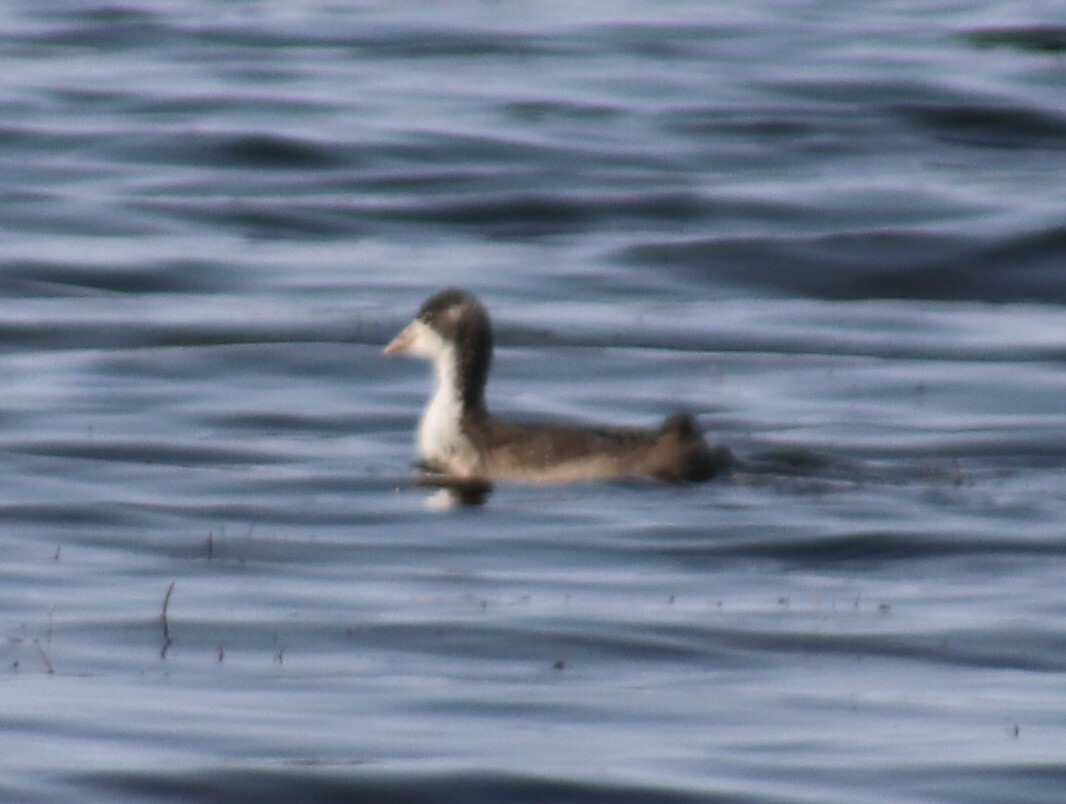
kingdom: Animalia
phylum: Chordata
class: Aves
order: Gruiformes
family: Rallidae
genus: Fulica
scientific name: Fulica americana
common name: American coot
